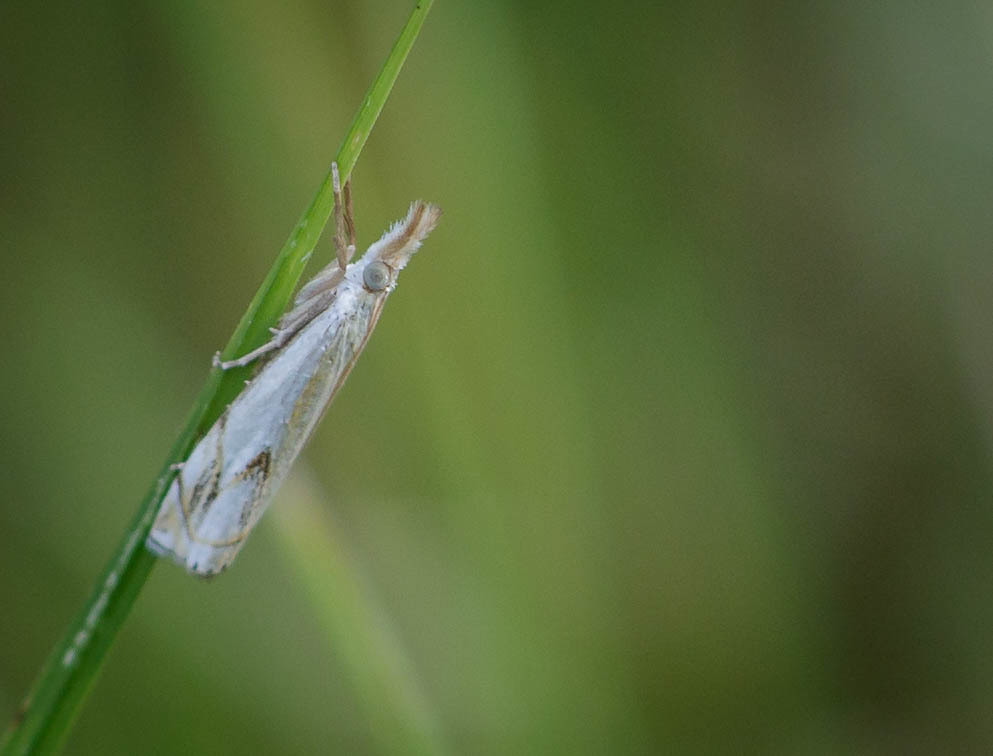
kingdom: Animalia
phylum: Arthropoda
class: Insecta
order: Lepidoptera
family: Crambidae
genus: Crambus
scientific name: Crambus agitatellus
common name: Double-banded grass-veneer
